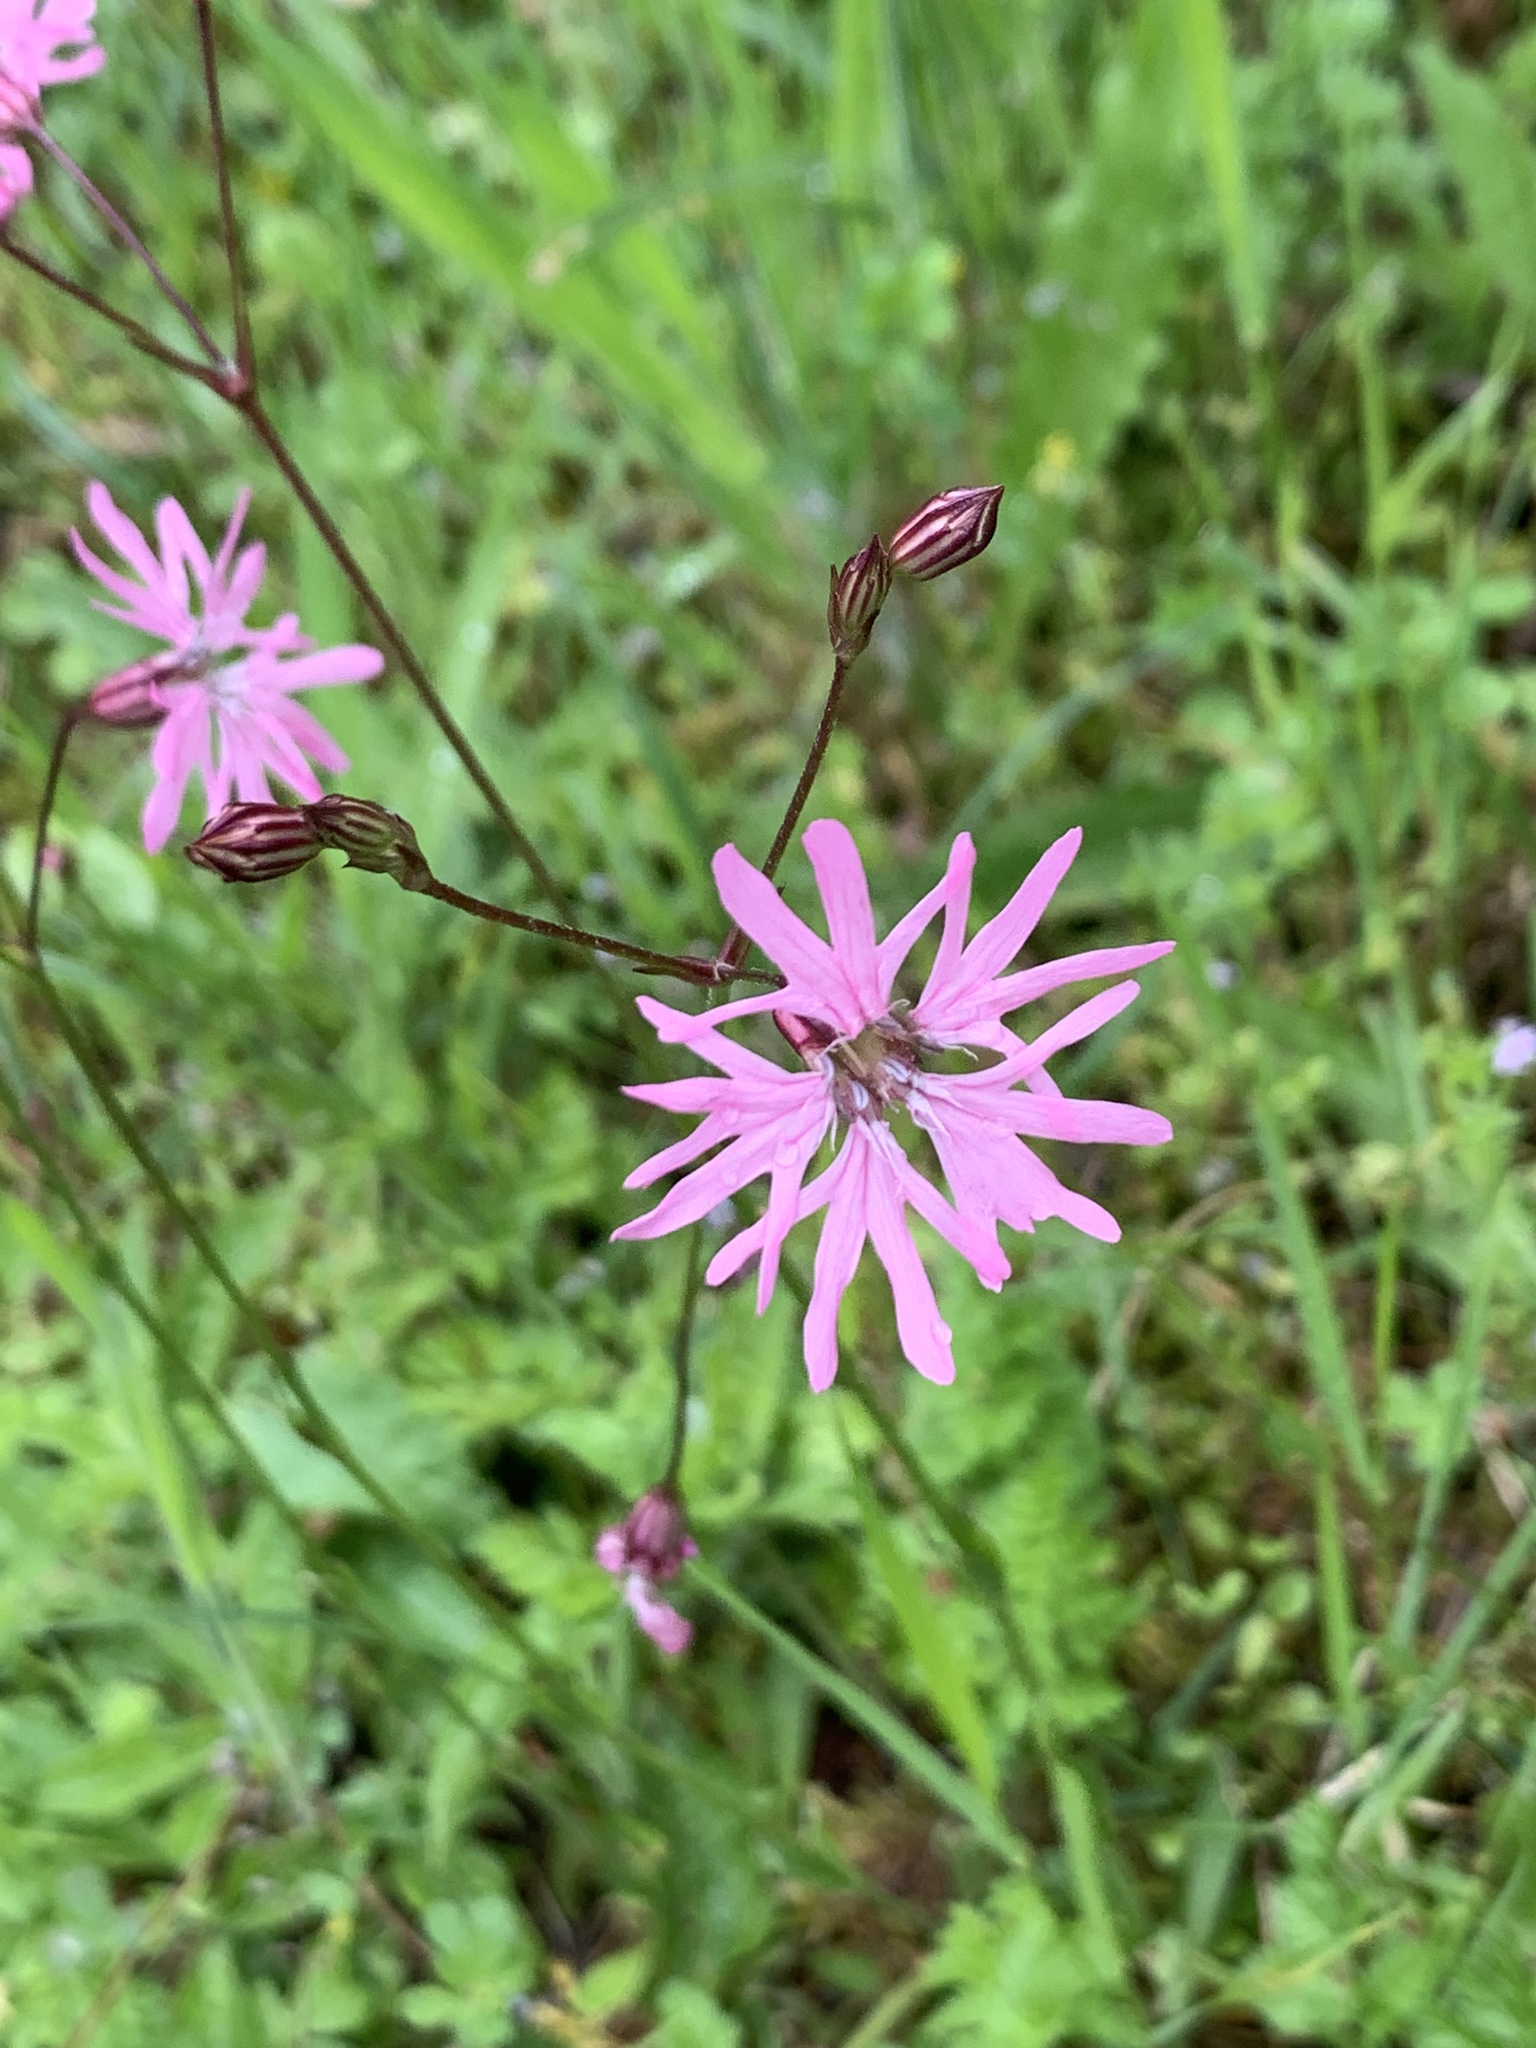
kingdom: Plantae
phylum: Tracheophyta
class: Magnoliopsida
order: Caryophyllales
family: Caryophyllaceae
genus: Silene
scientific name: Silene flos-cuculi
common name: Ragged-robin
